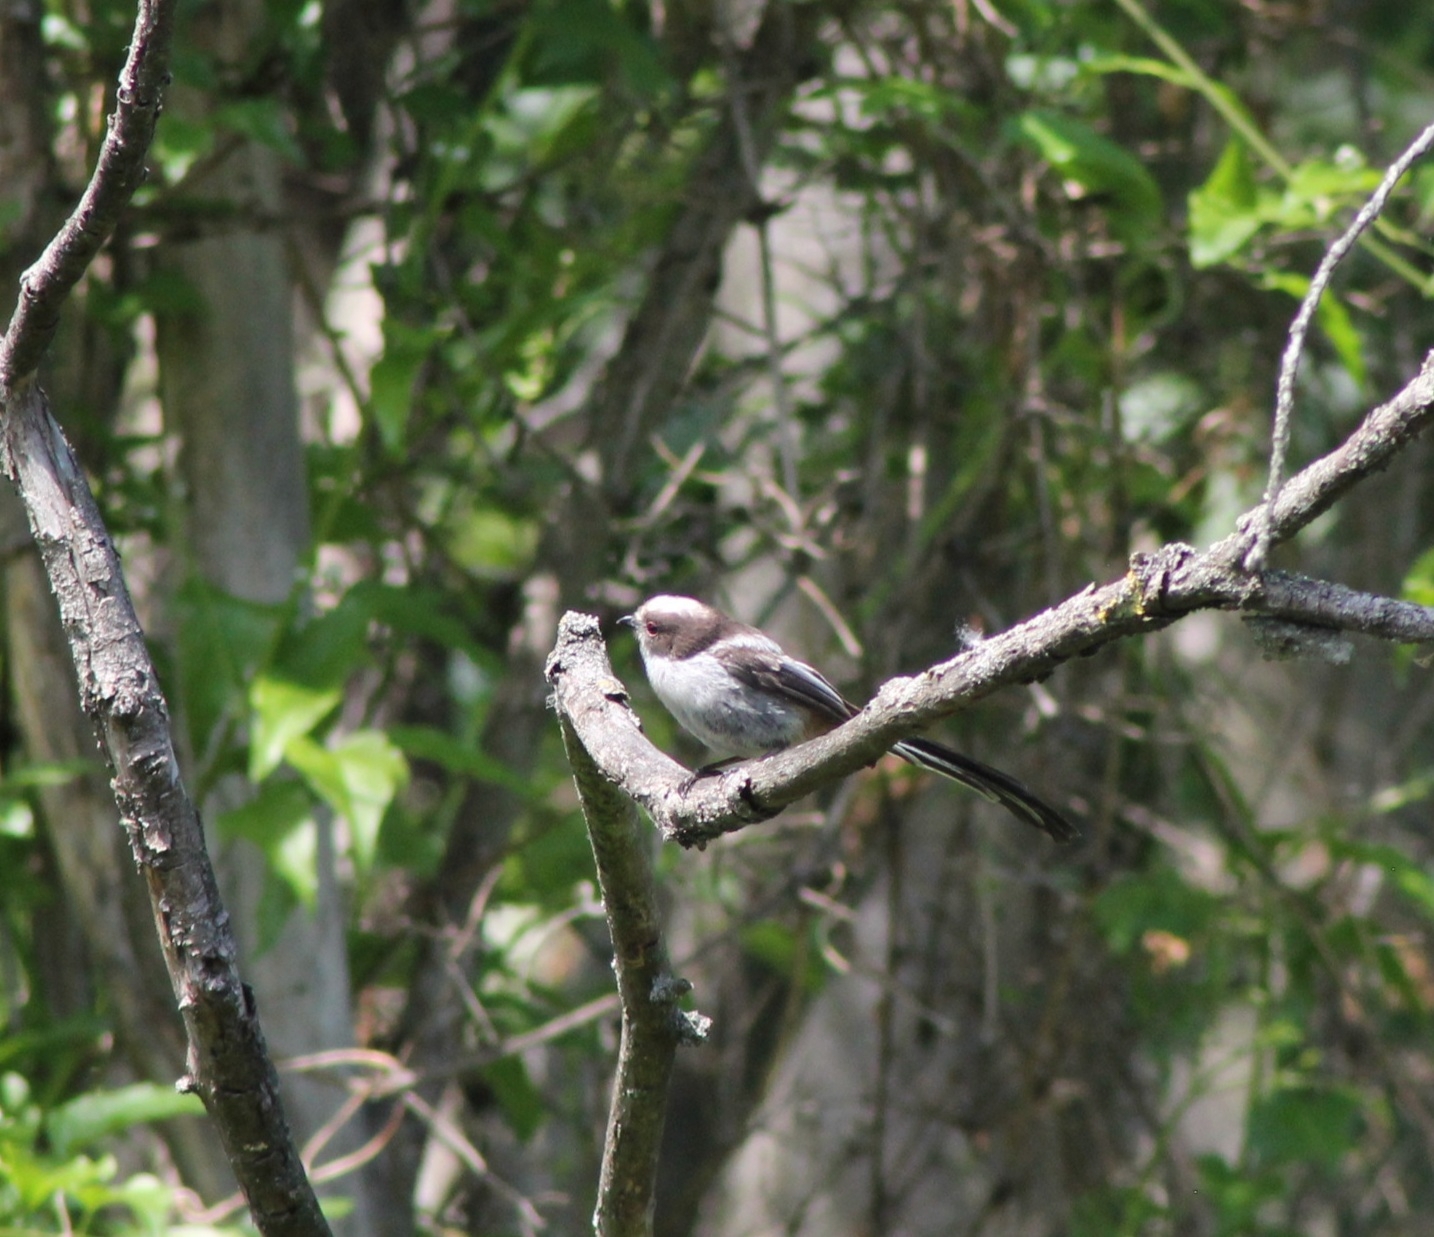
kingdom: Animalia
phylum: Chordata
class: Aves
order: Passeriformes
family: Aegithalidae
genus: Aegithalos
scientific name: Aegithalos caudatus
